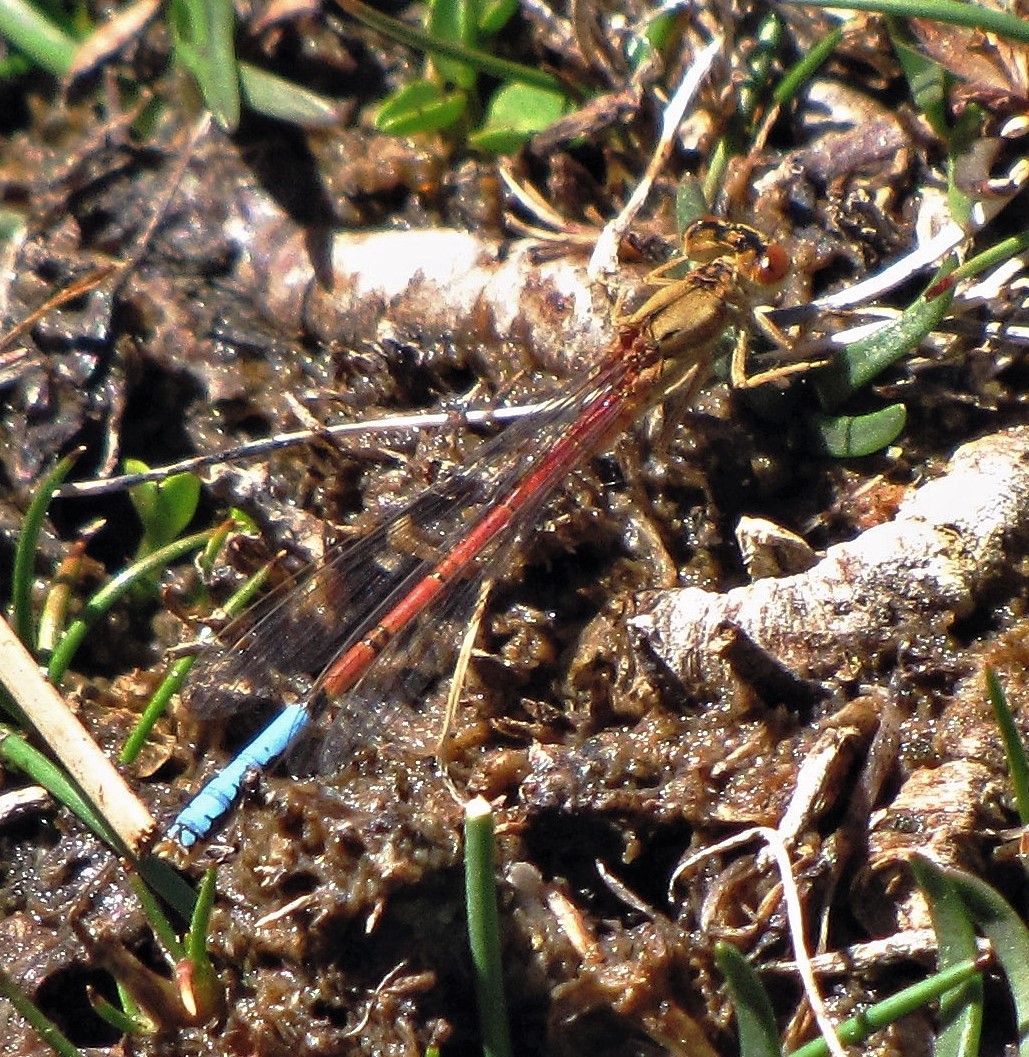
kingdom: Animalia
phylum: Arthropoda
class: Insecta
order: Odonata
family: Coenagrionidae
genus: Protallagma
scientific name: Protallagma titicacae
